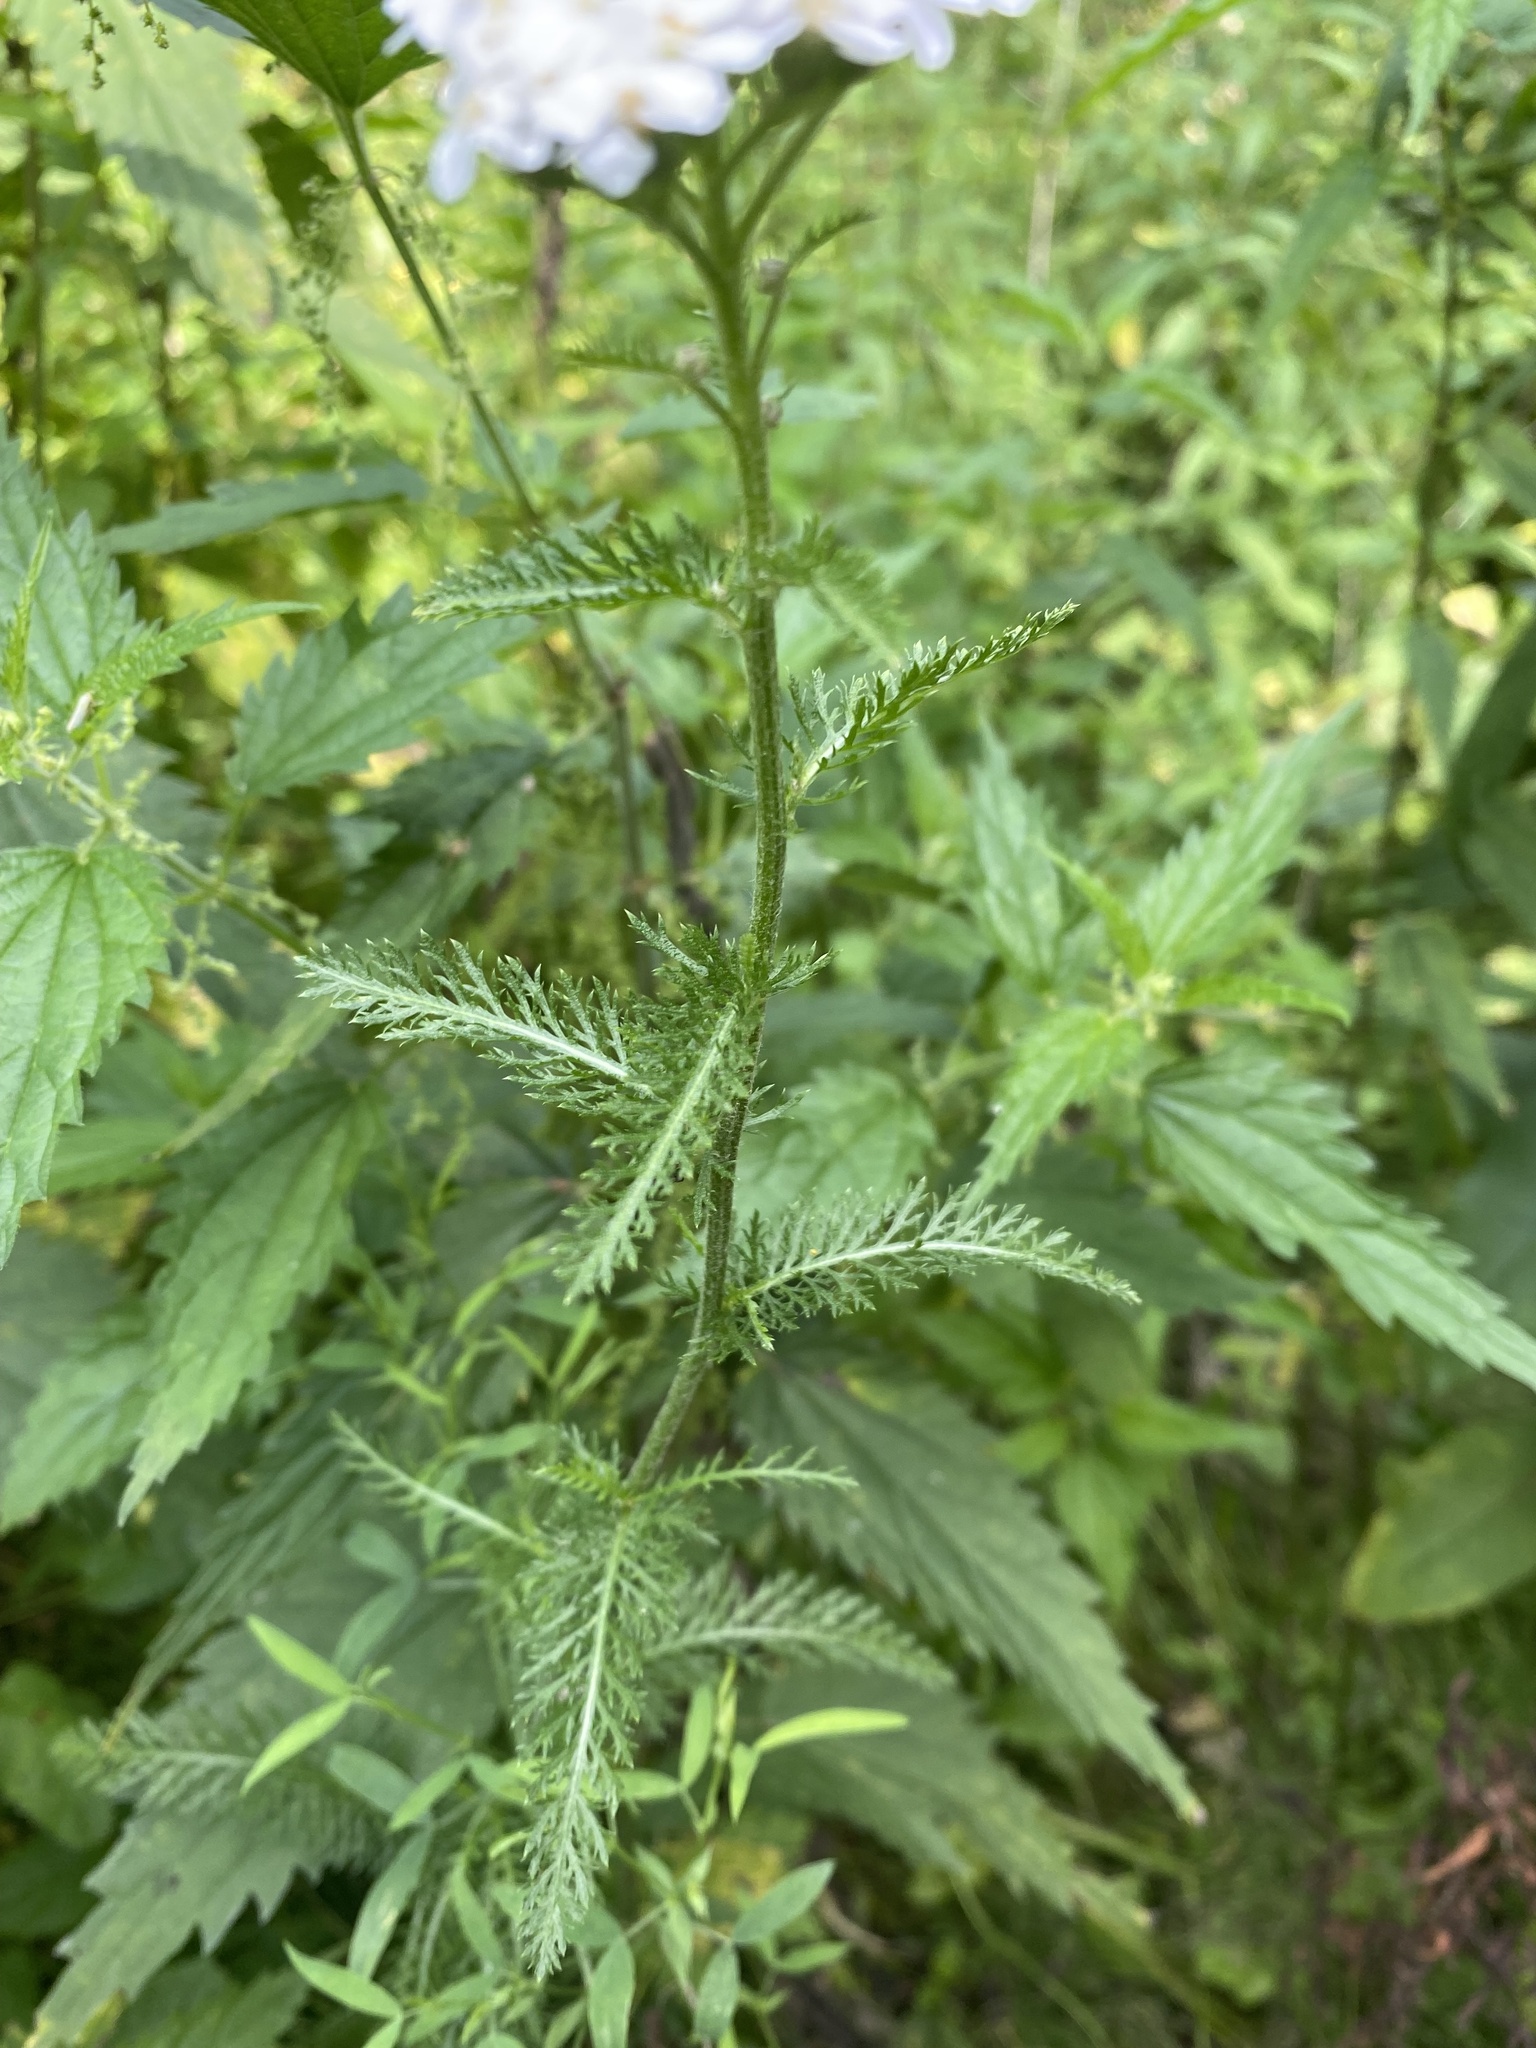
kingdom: Plantae
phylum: Tracheophyta
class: Magnoliopsida
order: Asterales
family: Asteraceae
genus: Achillea
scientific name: Achillea millefolium
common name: Yarrow
